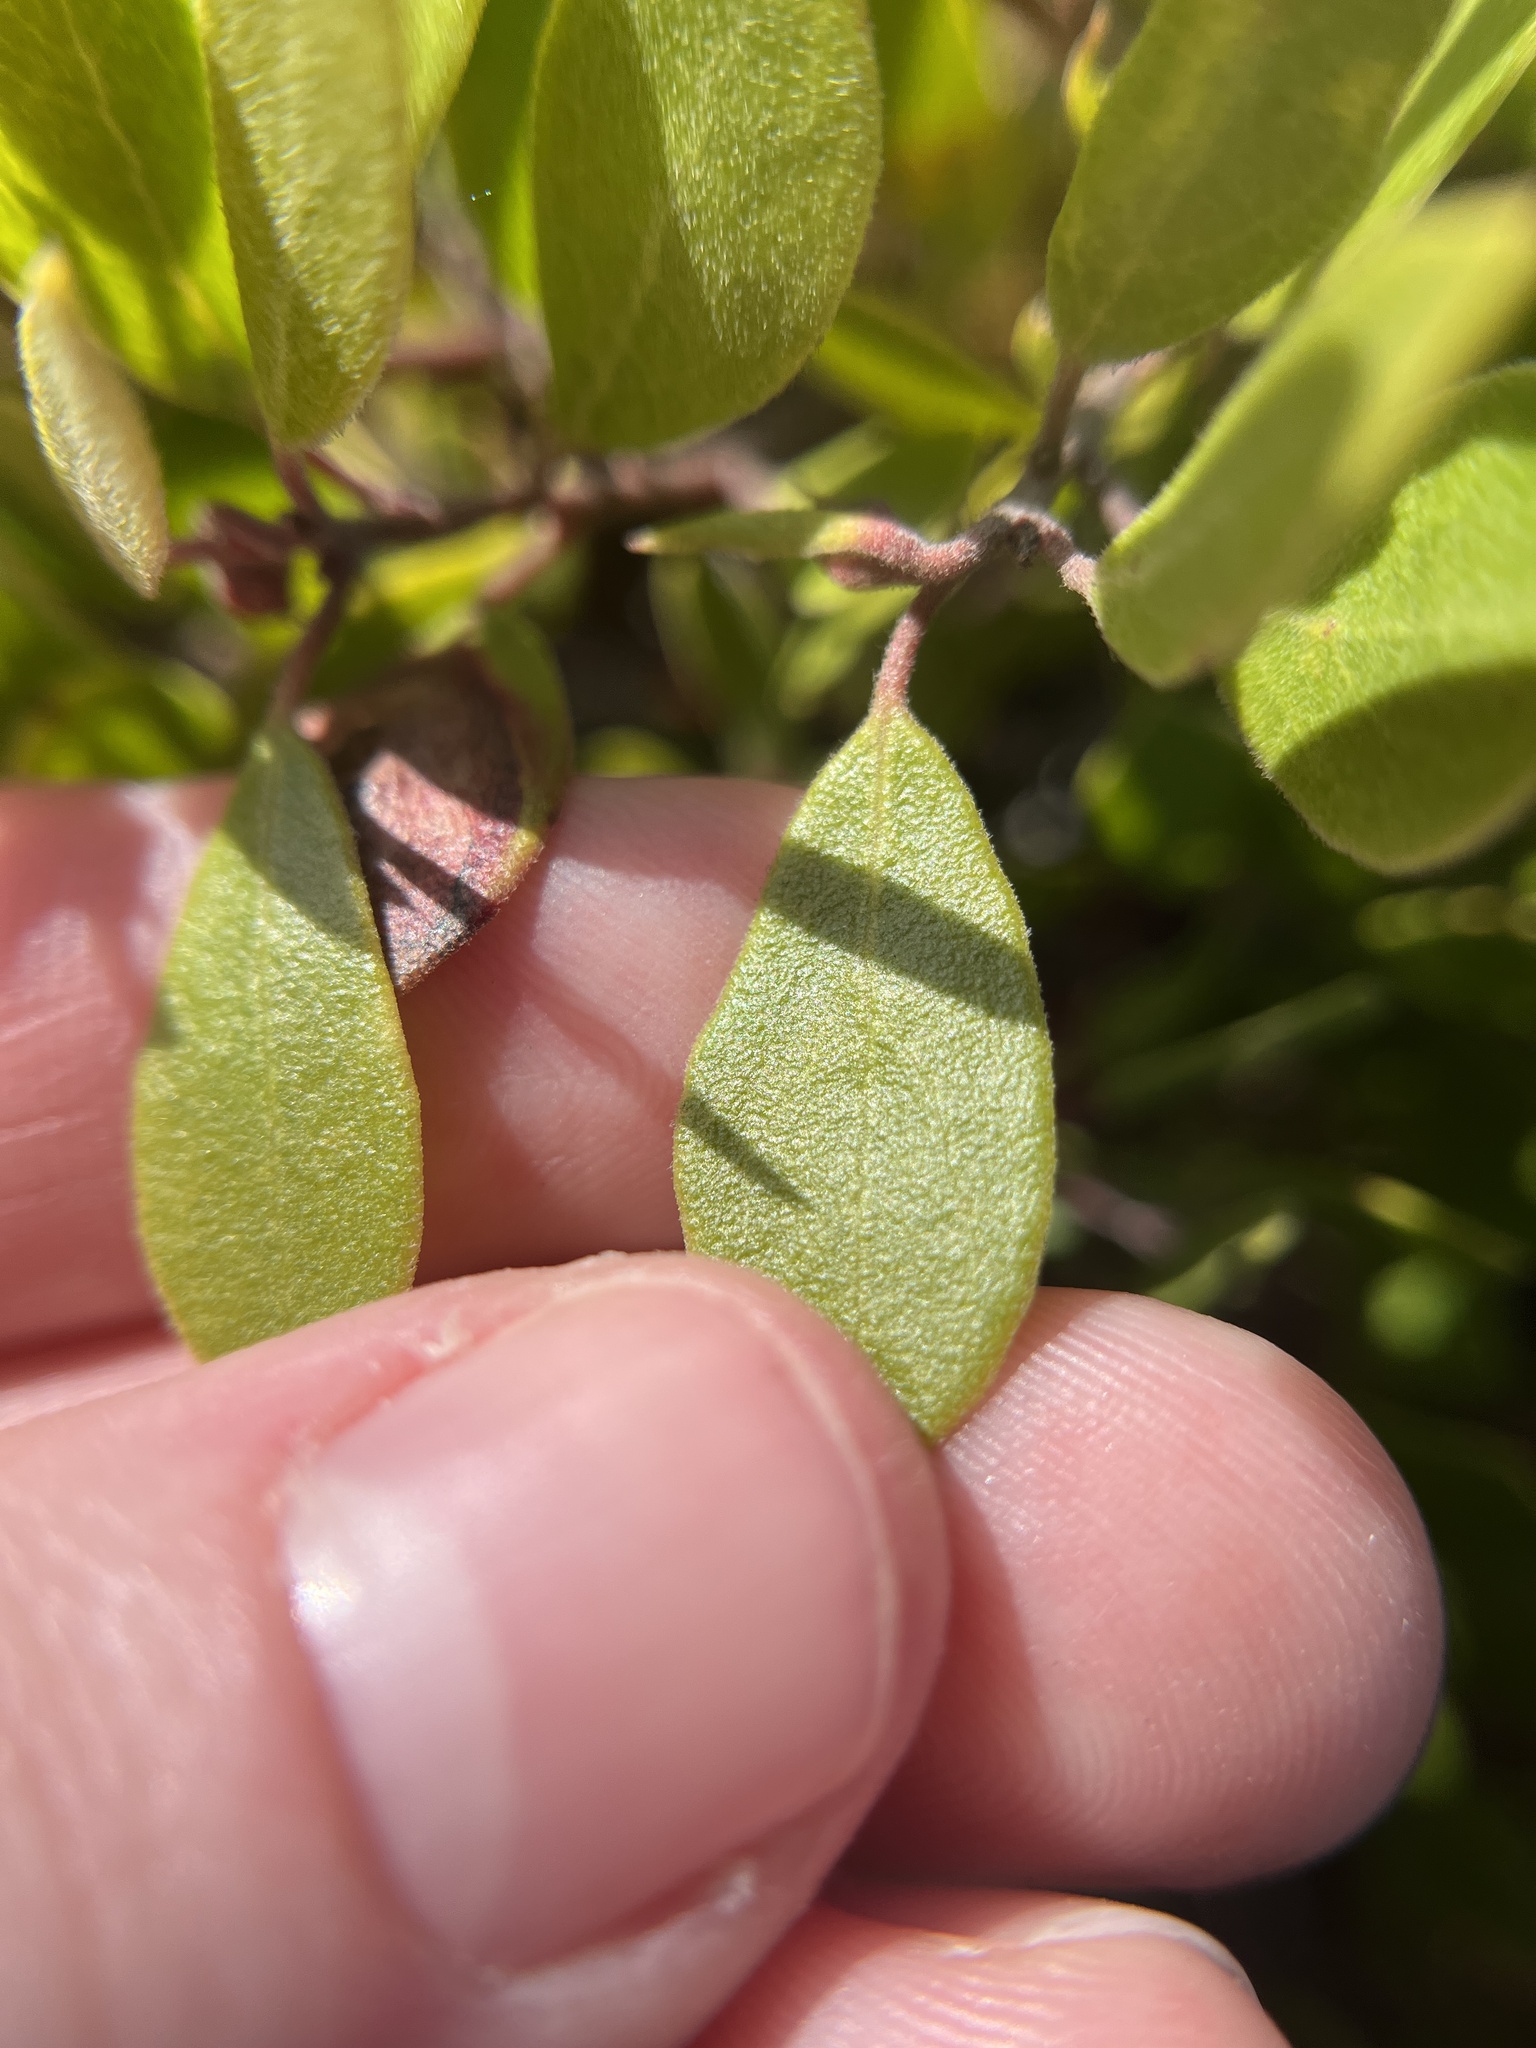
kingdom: Plantae
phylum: Tracheophyta
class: Magnoliopsida
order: Ericales
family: Ericaceae
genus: Arctostaphylos
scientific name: Arctostaphylos hookeri
